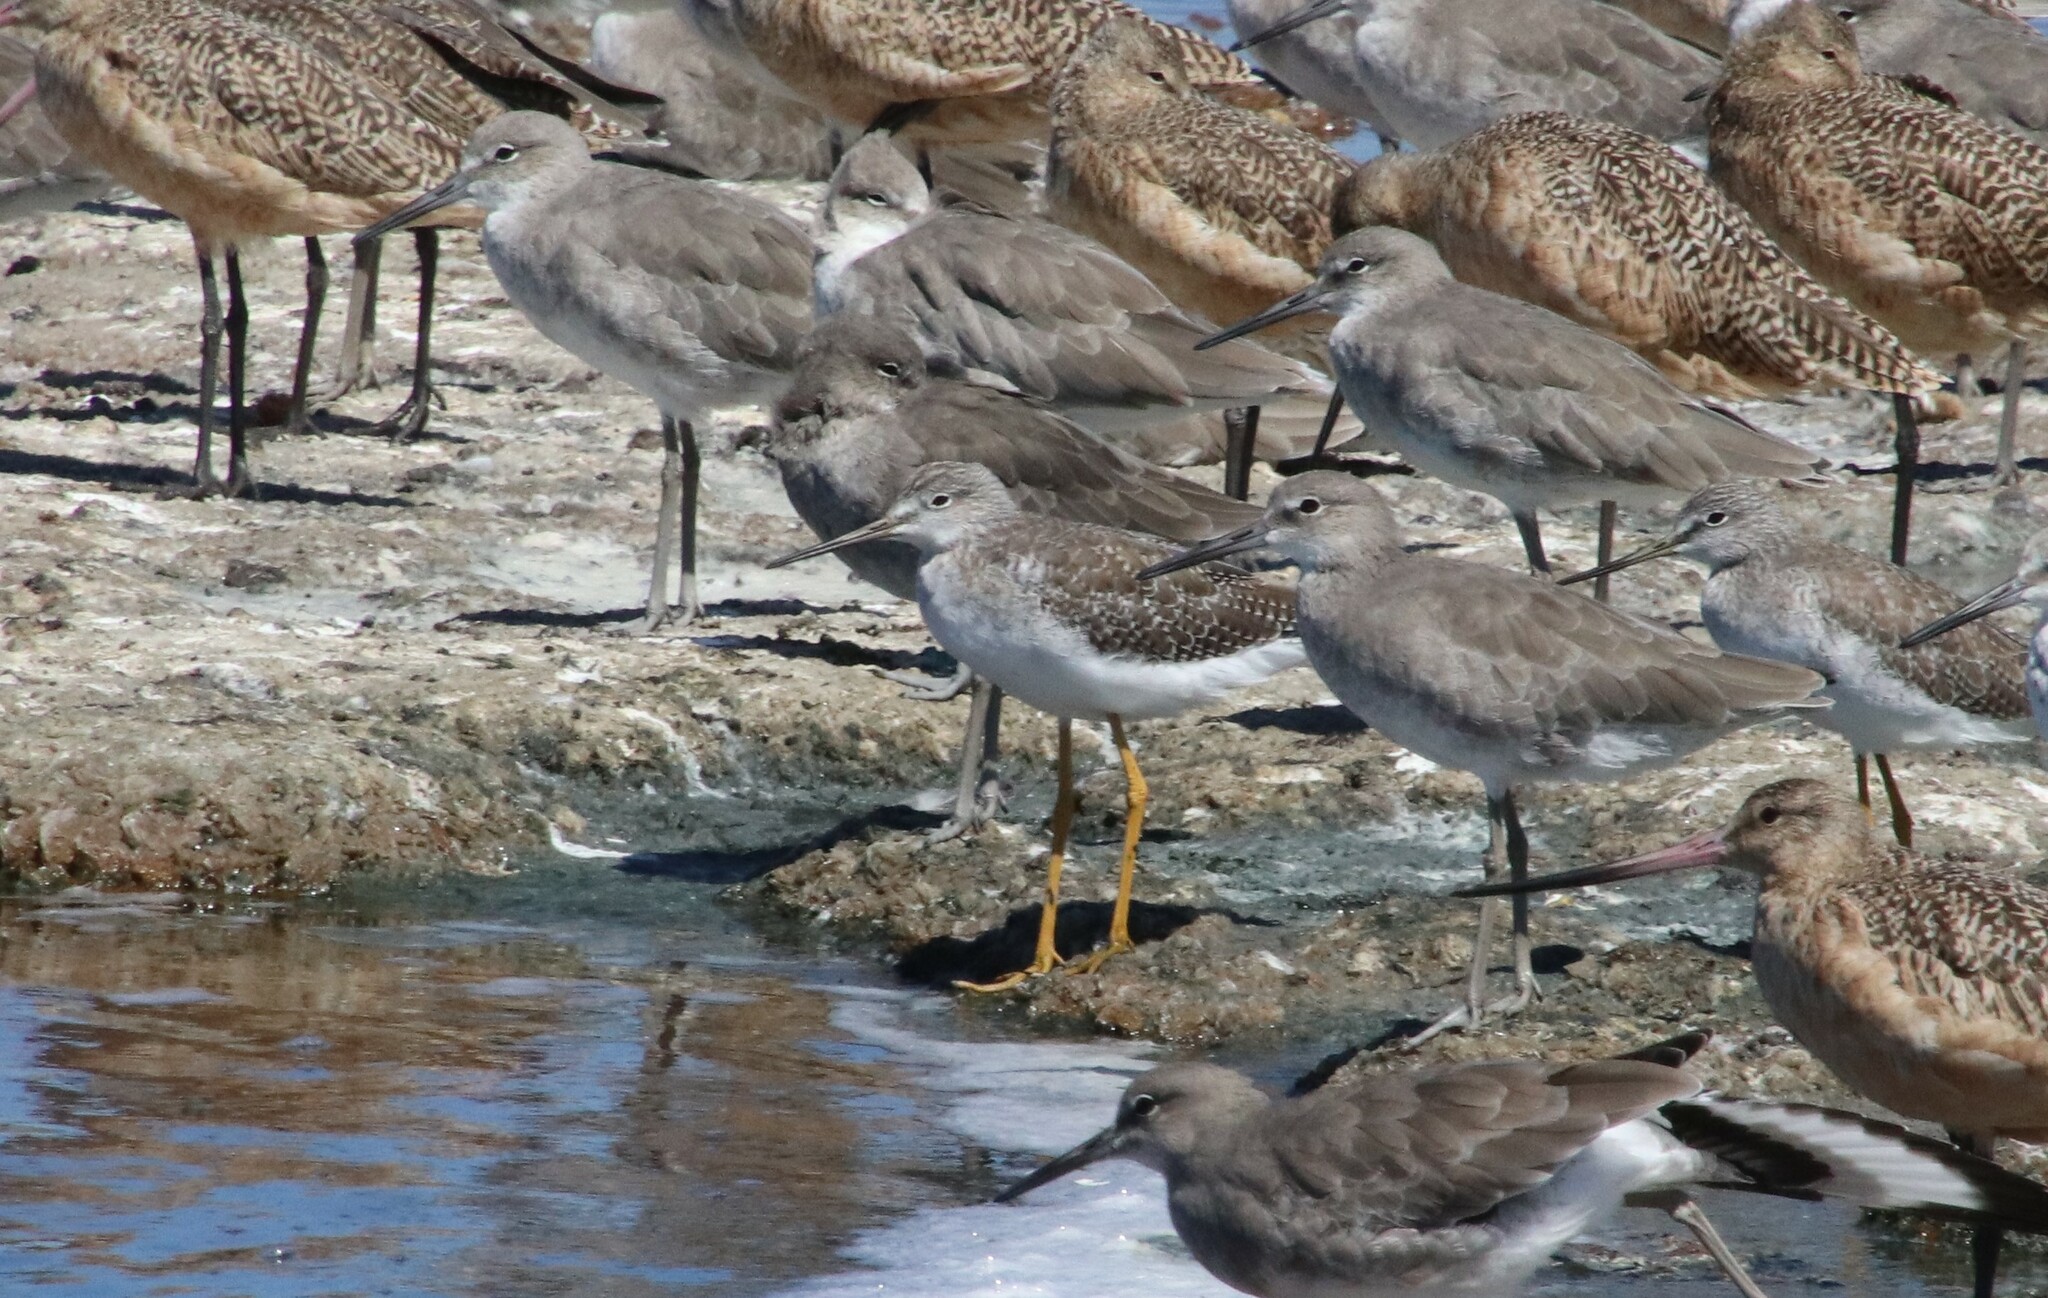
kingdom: Animalia
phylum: Chordata
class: Aves
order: Charadriiformes
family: Scolopacidae
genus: Tringa
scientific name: Tringa melanoleuca
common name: Greater yellowlegs
